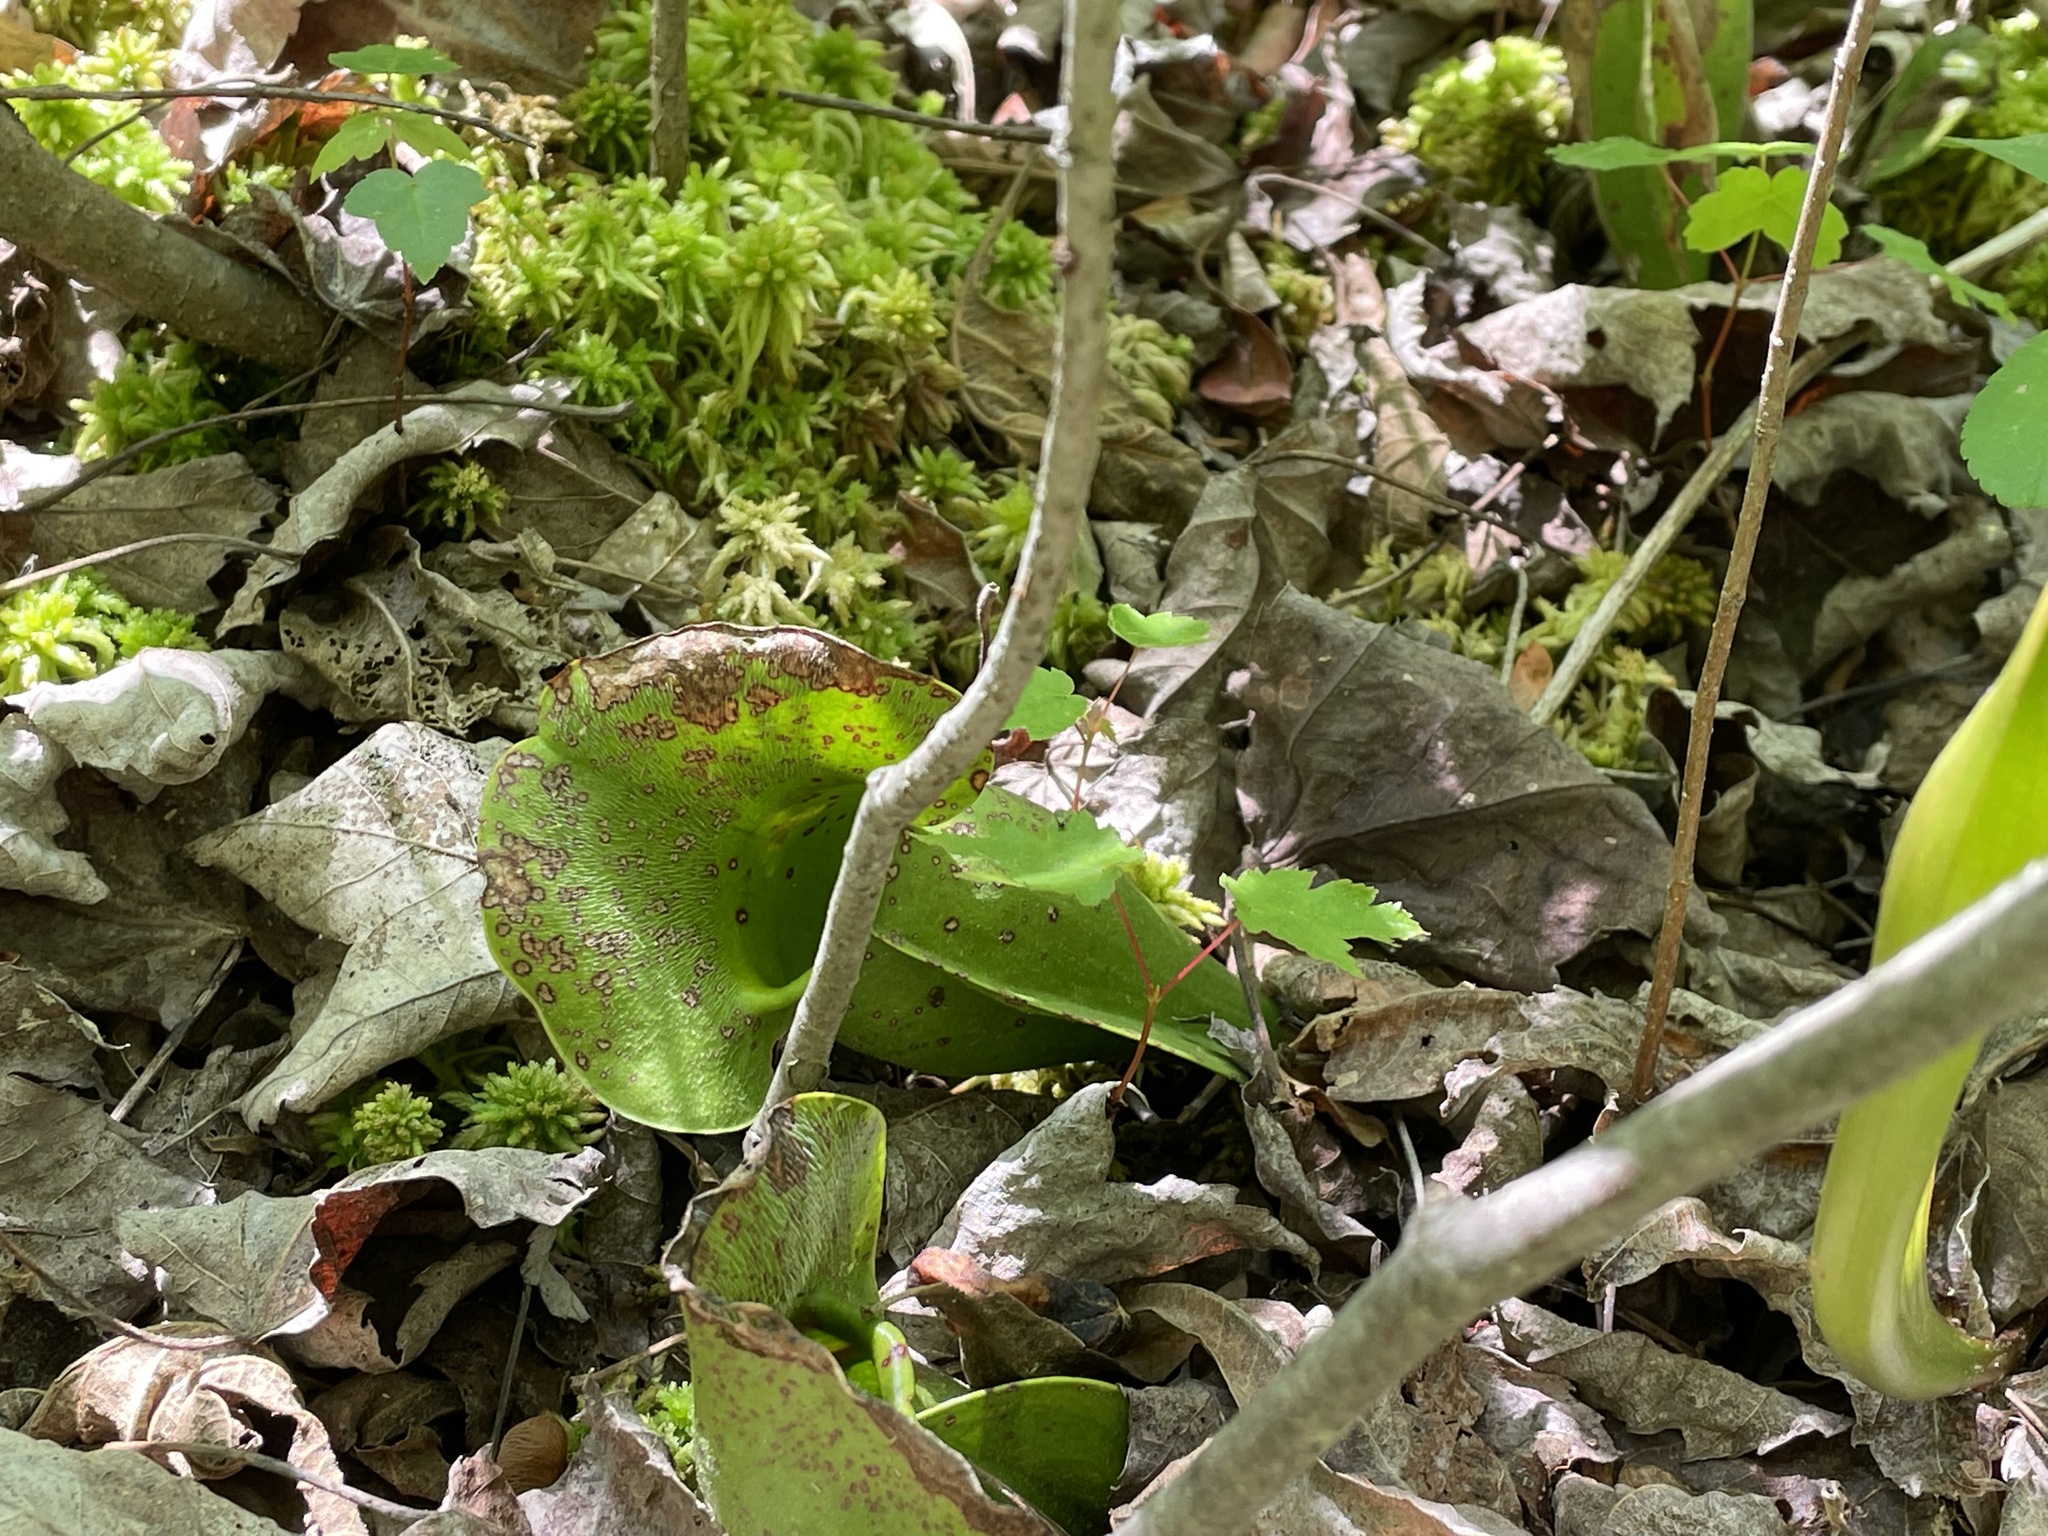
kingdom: Plantae
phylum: Tracheophyta
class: Magnoliopsida
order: Ericales
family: Sarraceniaceae
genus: Sarracenia
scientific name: Sarracenia purpurea
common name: Pitcherplant
